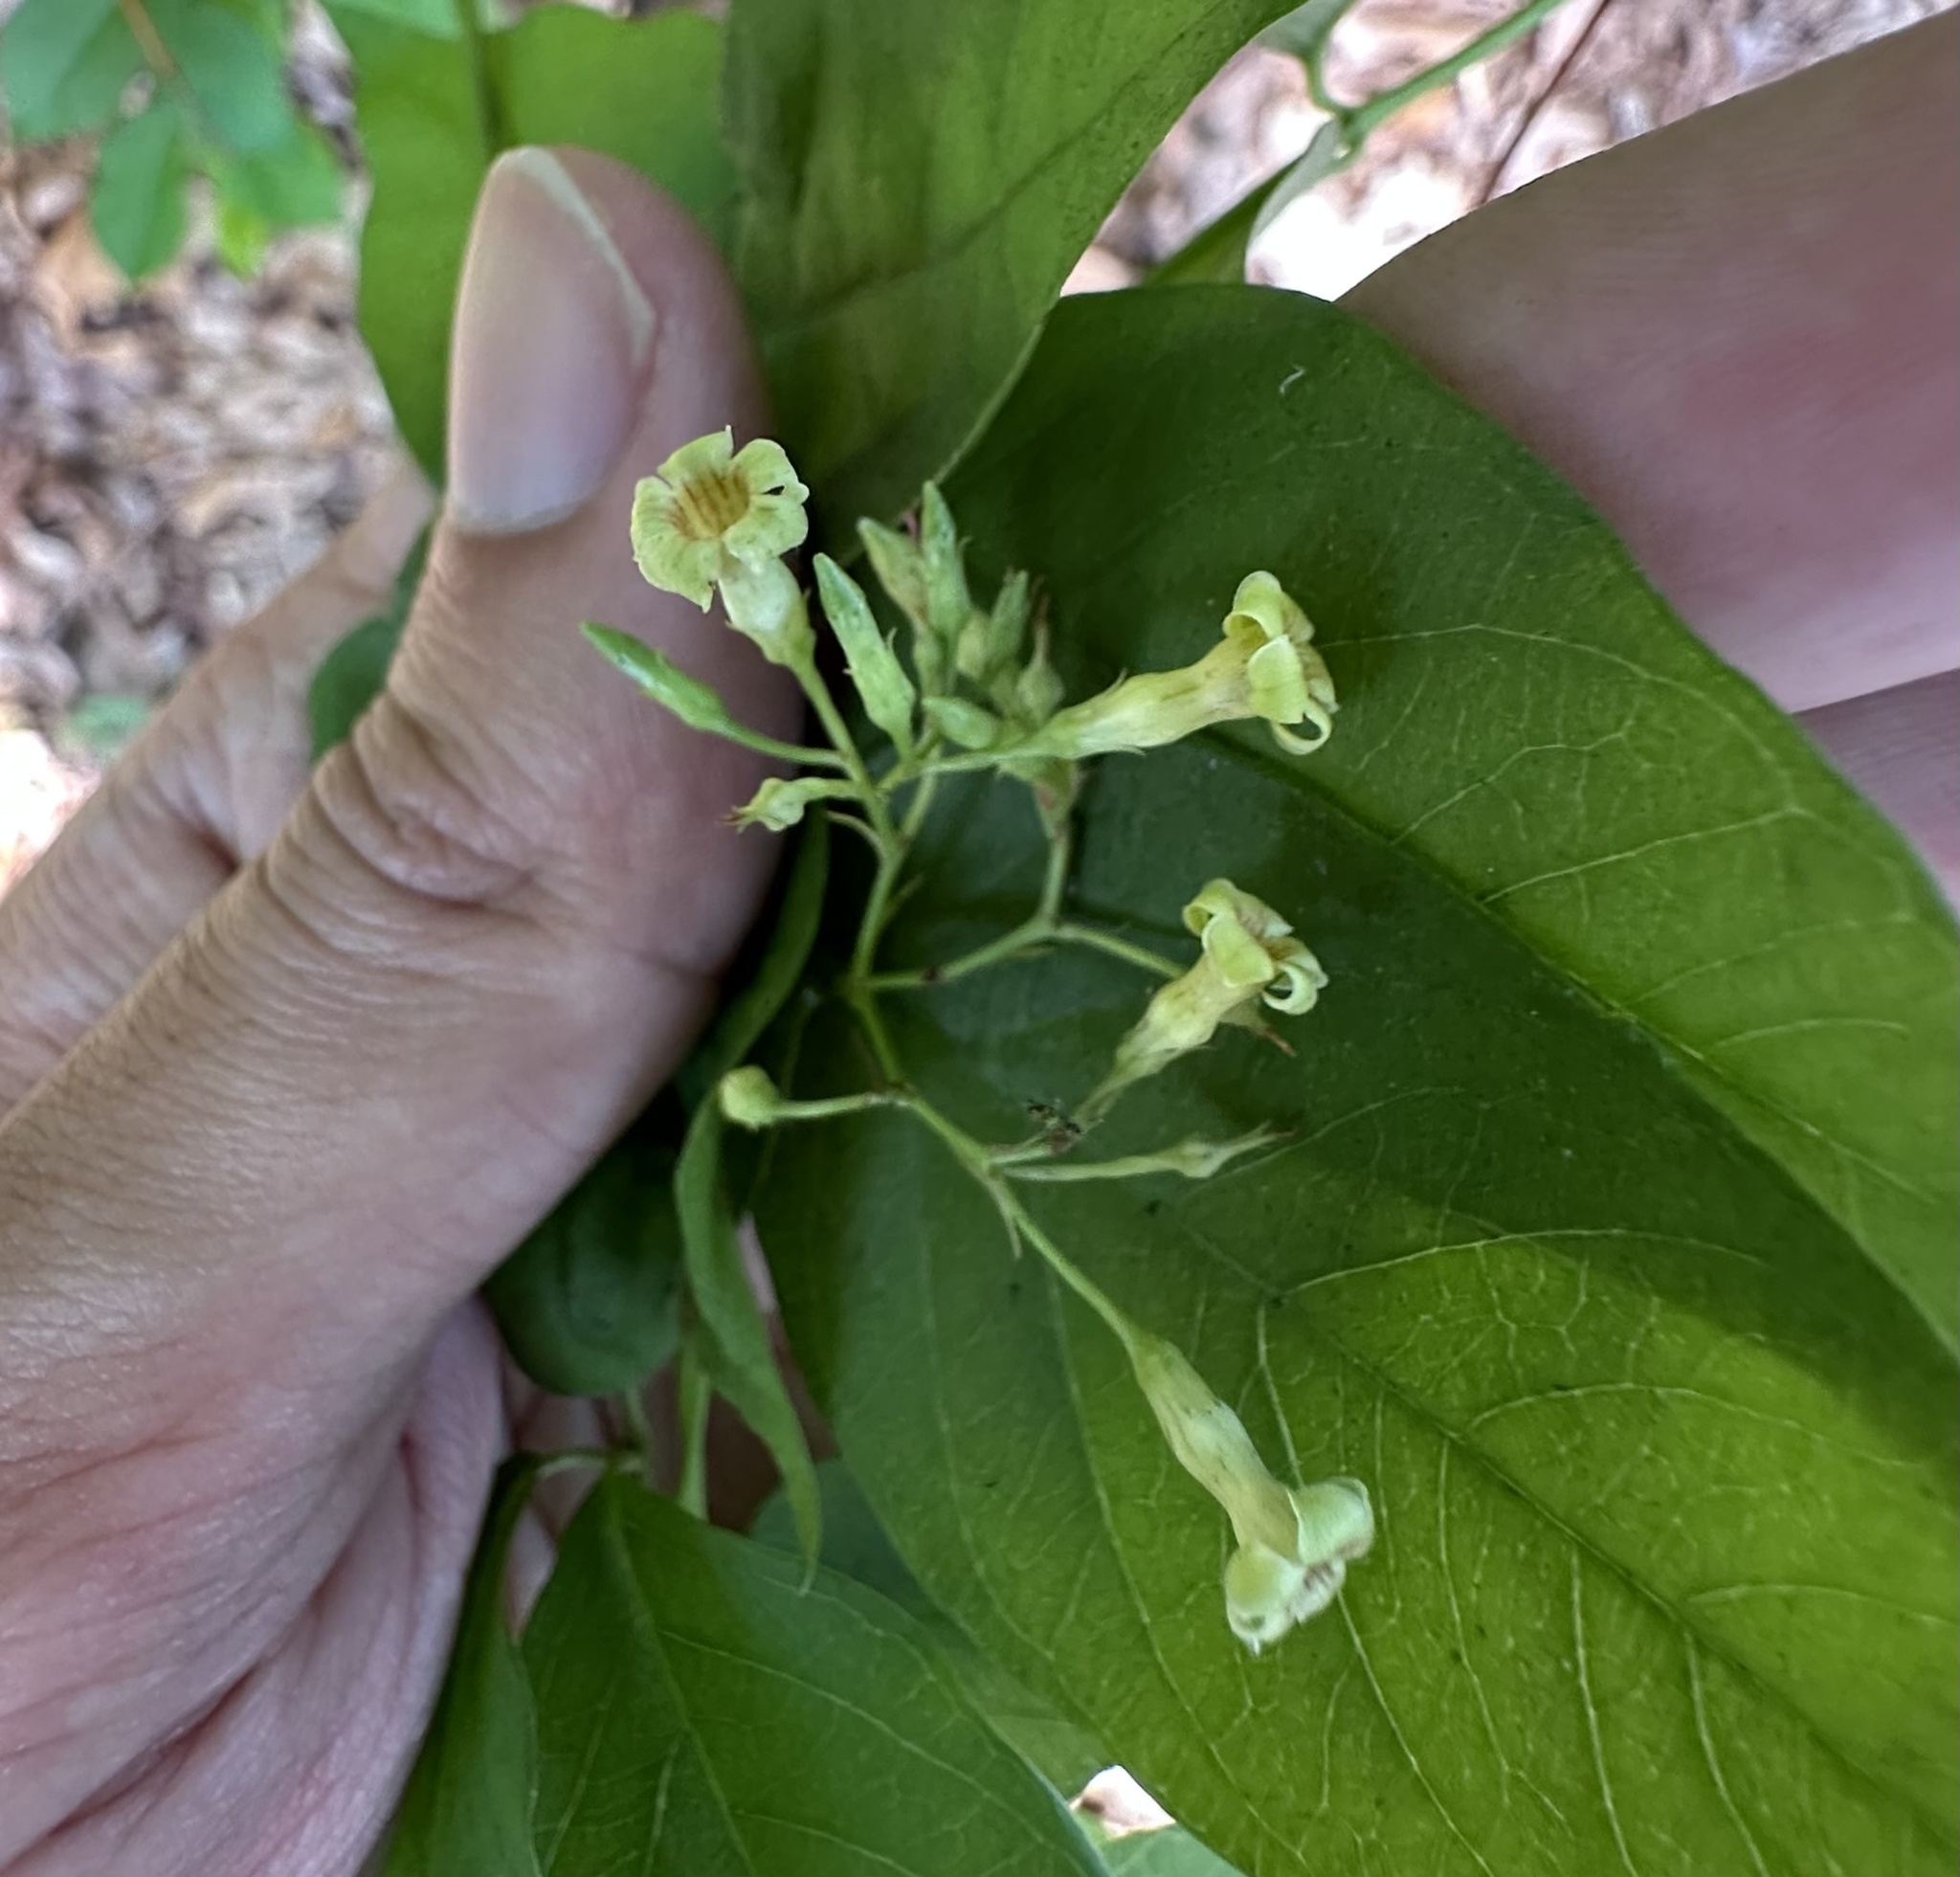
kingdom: Plantae
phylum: Tracheophyta
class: Magnoliopsida
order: Gentianales
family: Apocynaceae
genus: Thyrsanthella
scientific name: Thyrsanthella difformis
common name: Climbing dogbane
